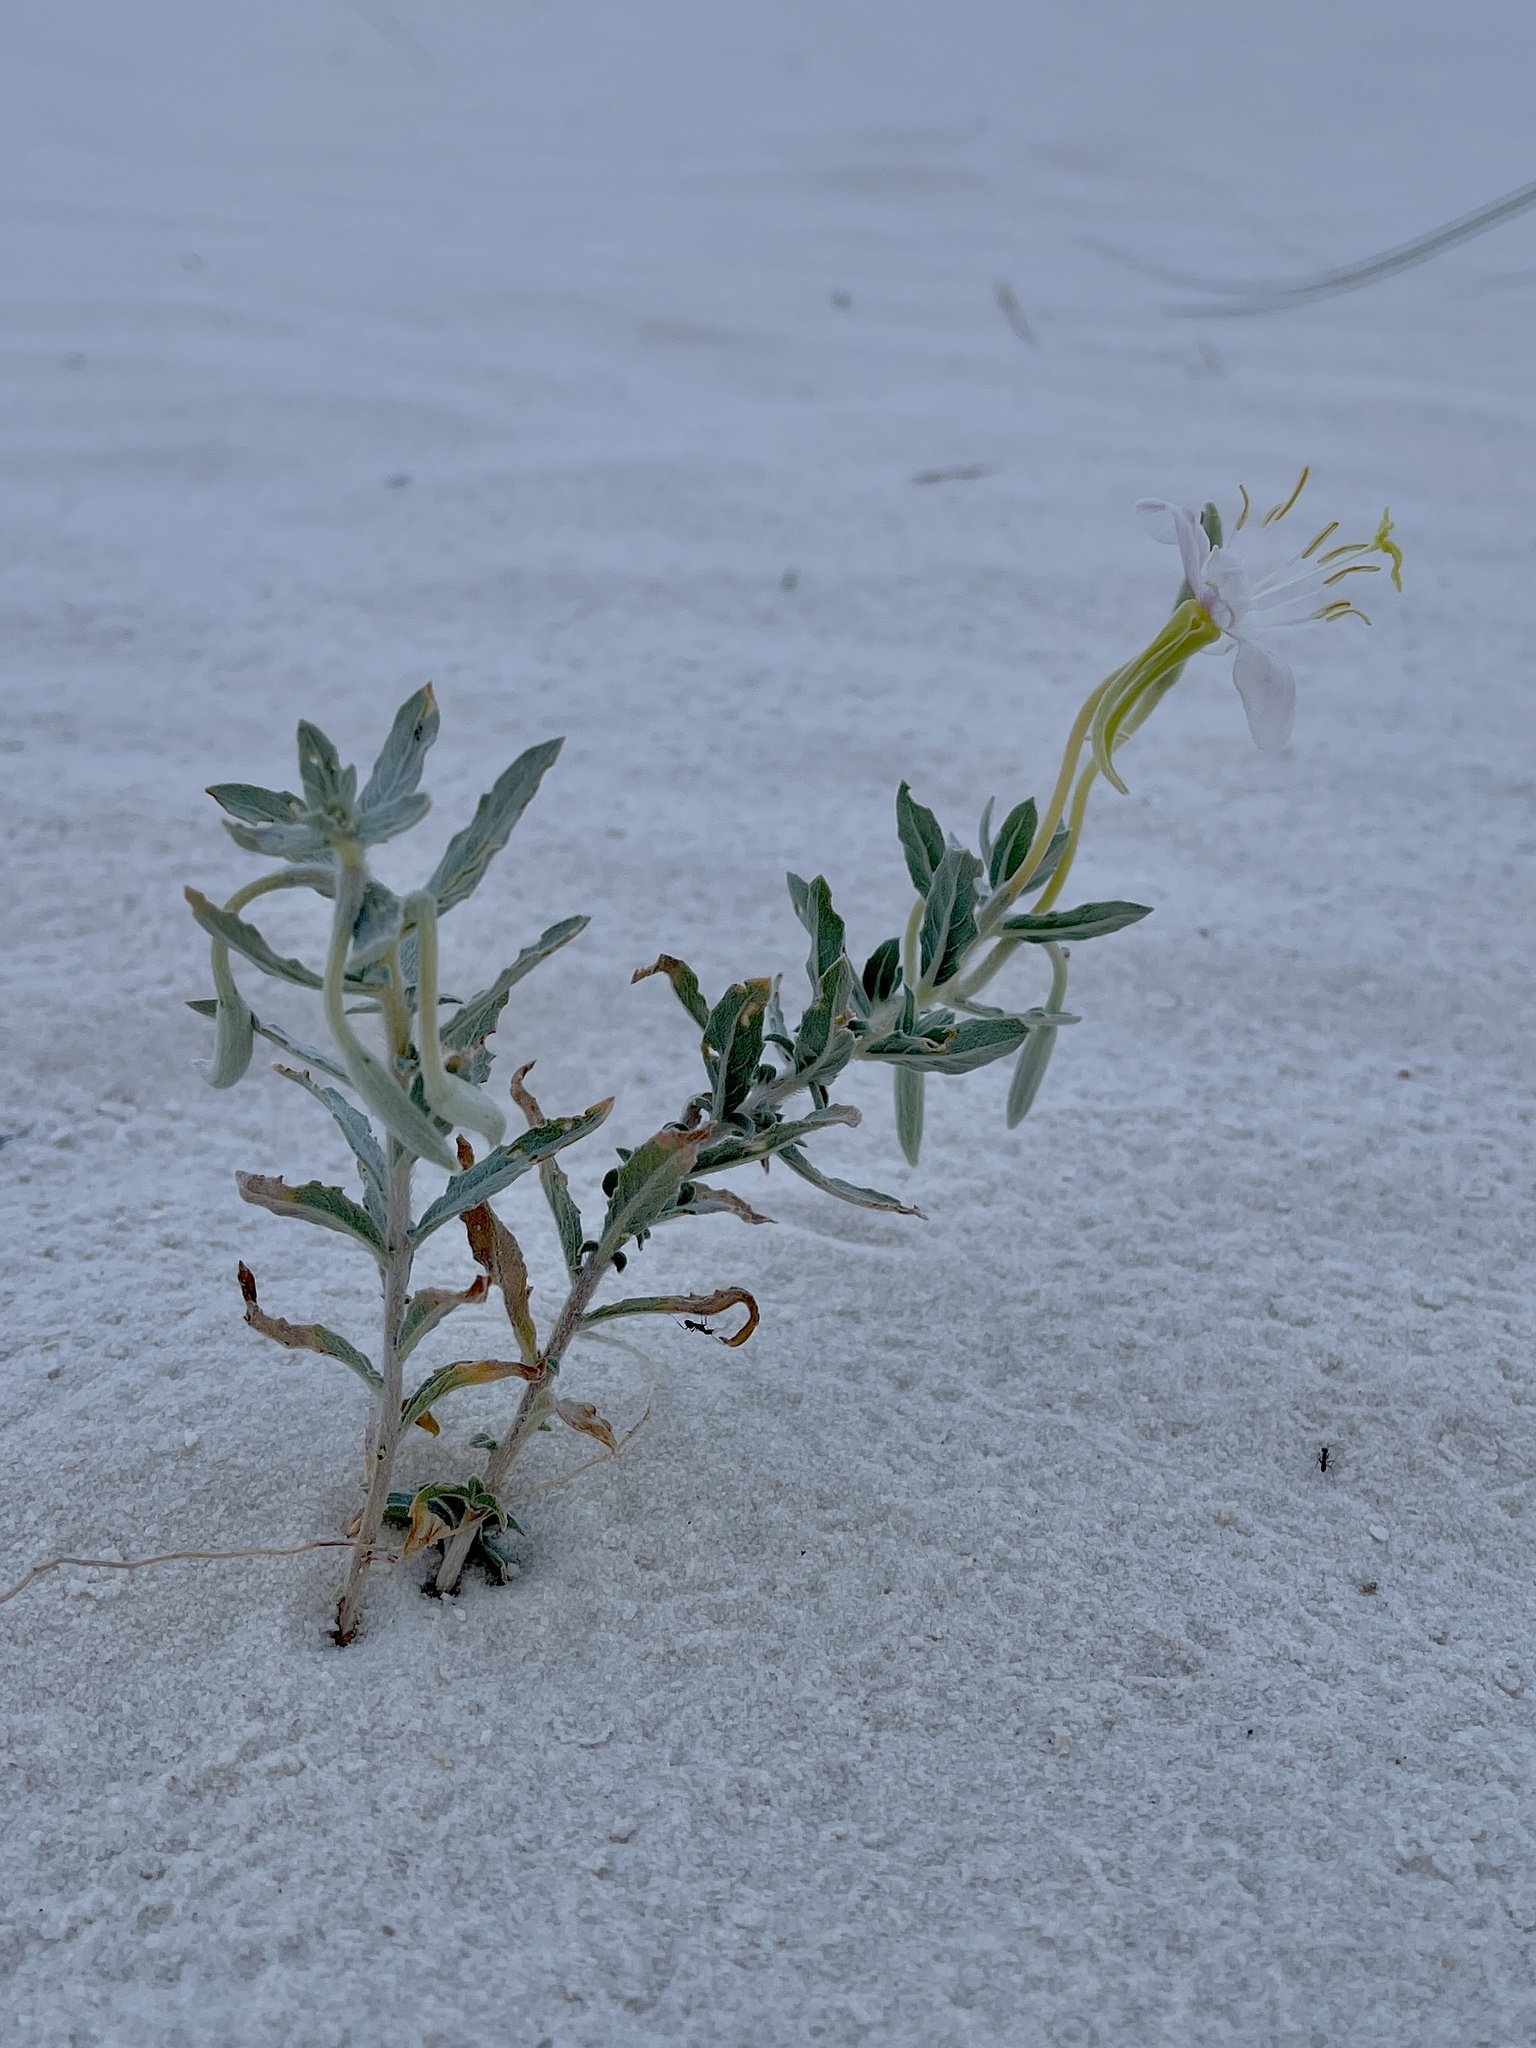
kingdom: Plantae
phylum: Tracheophyta
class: Magnoliopsida
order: Myrtales
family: Onagraceae
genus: Oenothera
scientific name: Oenothera pallida
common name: Pale evening-primrose
